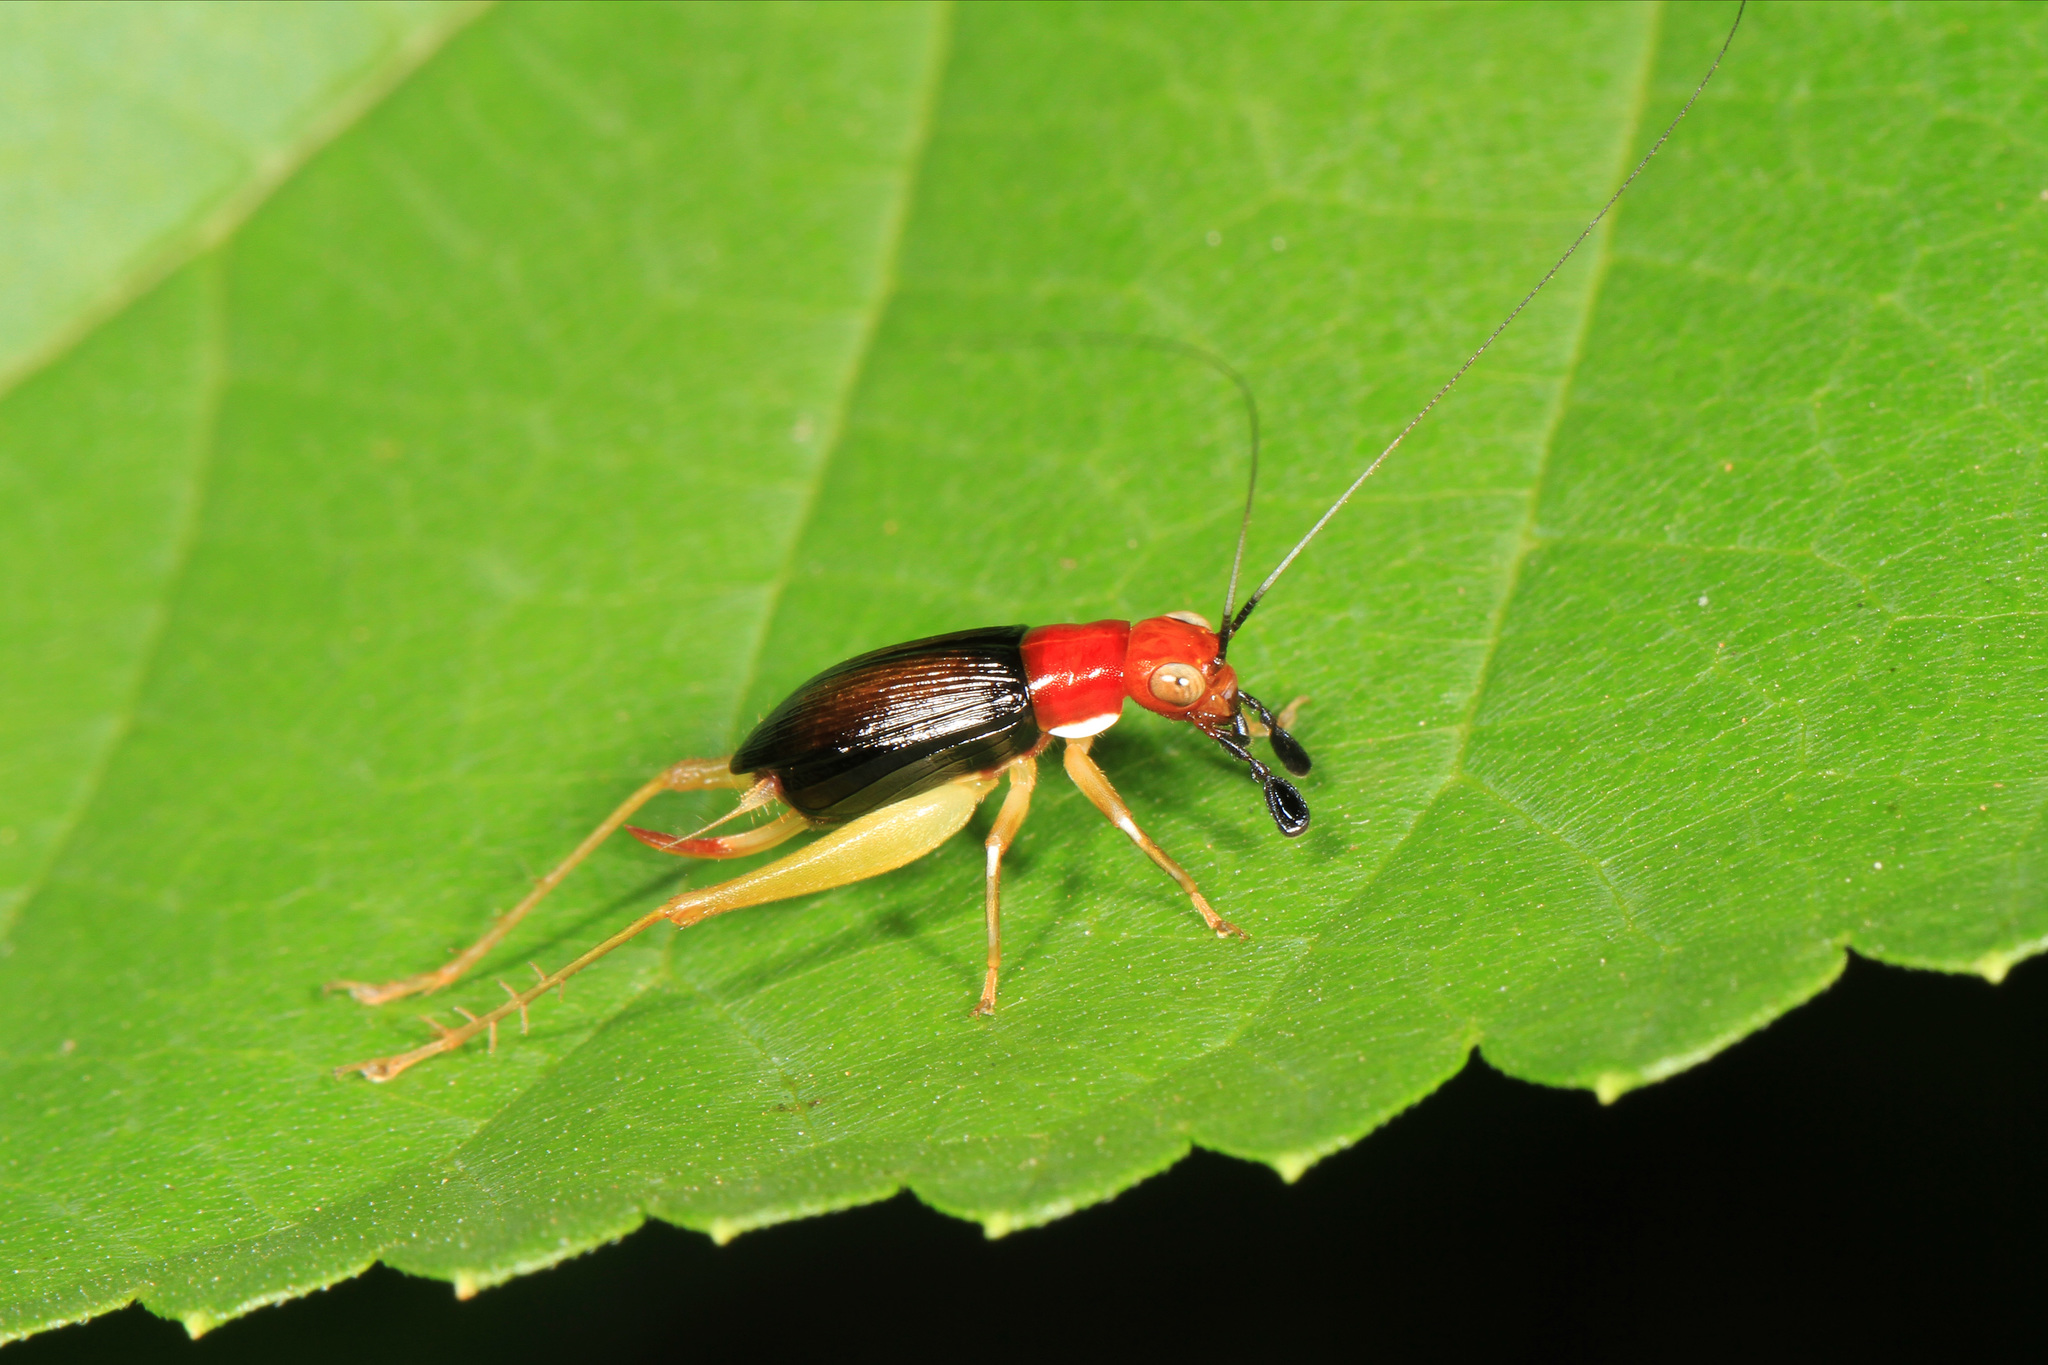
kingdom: Animalia
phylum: Arthropoda
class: Insecta
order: Orthoptera
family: Trigonidiidae
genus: Phyllopalpus
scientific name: Phyllopalpus pulchellus
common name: Handsome trig
